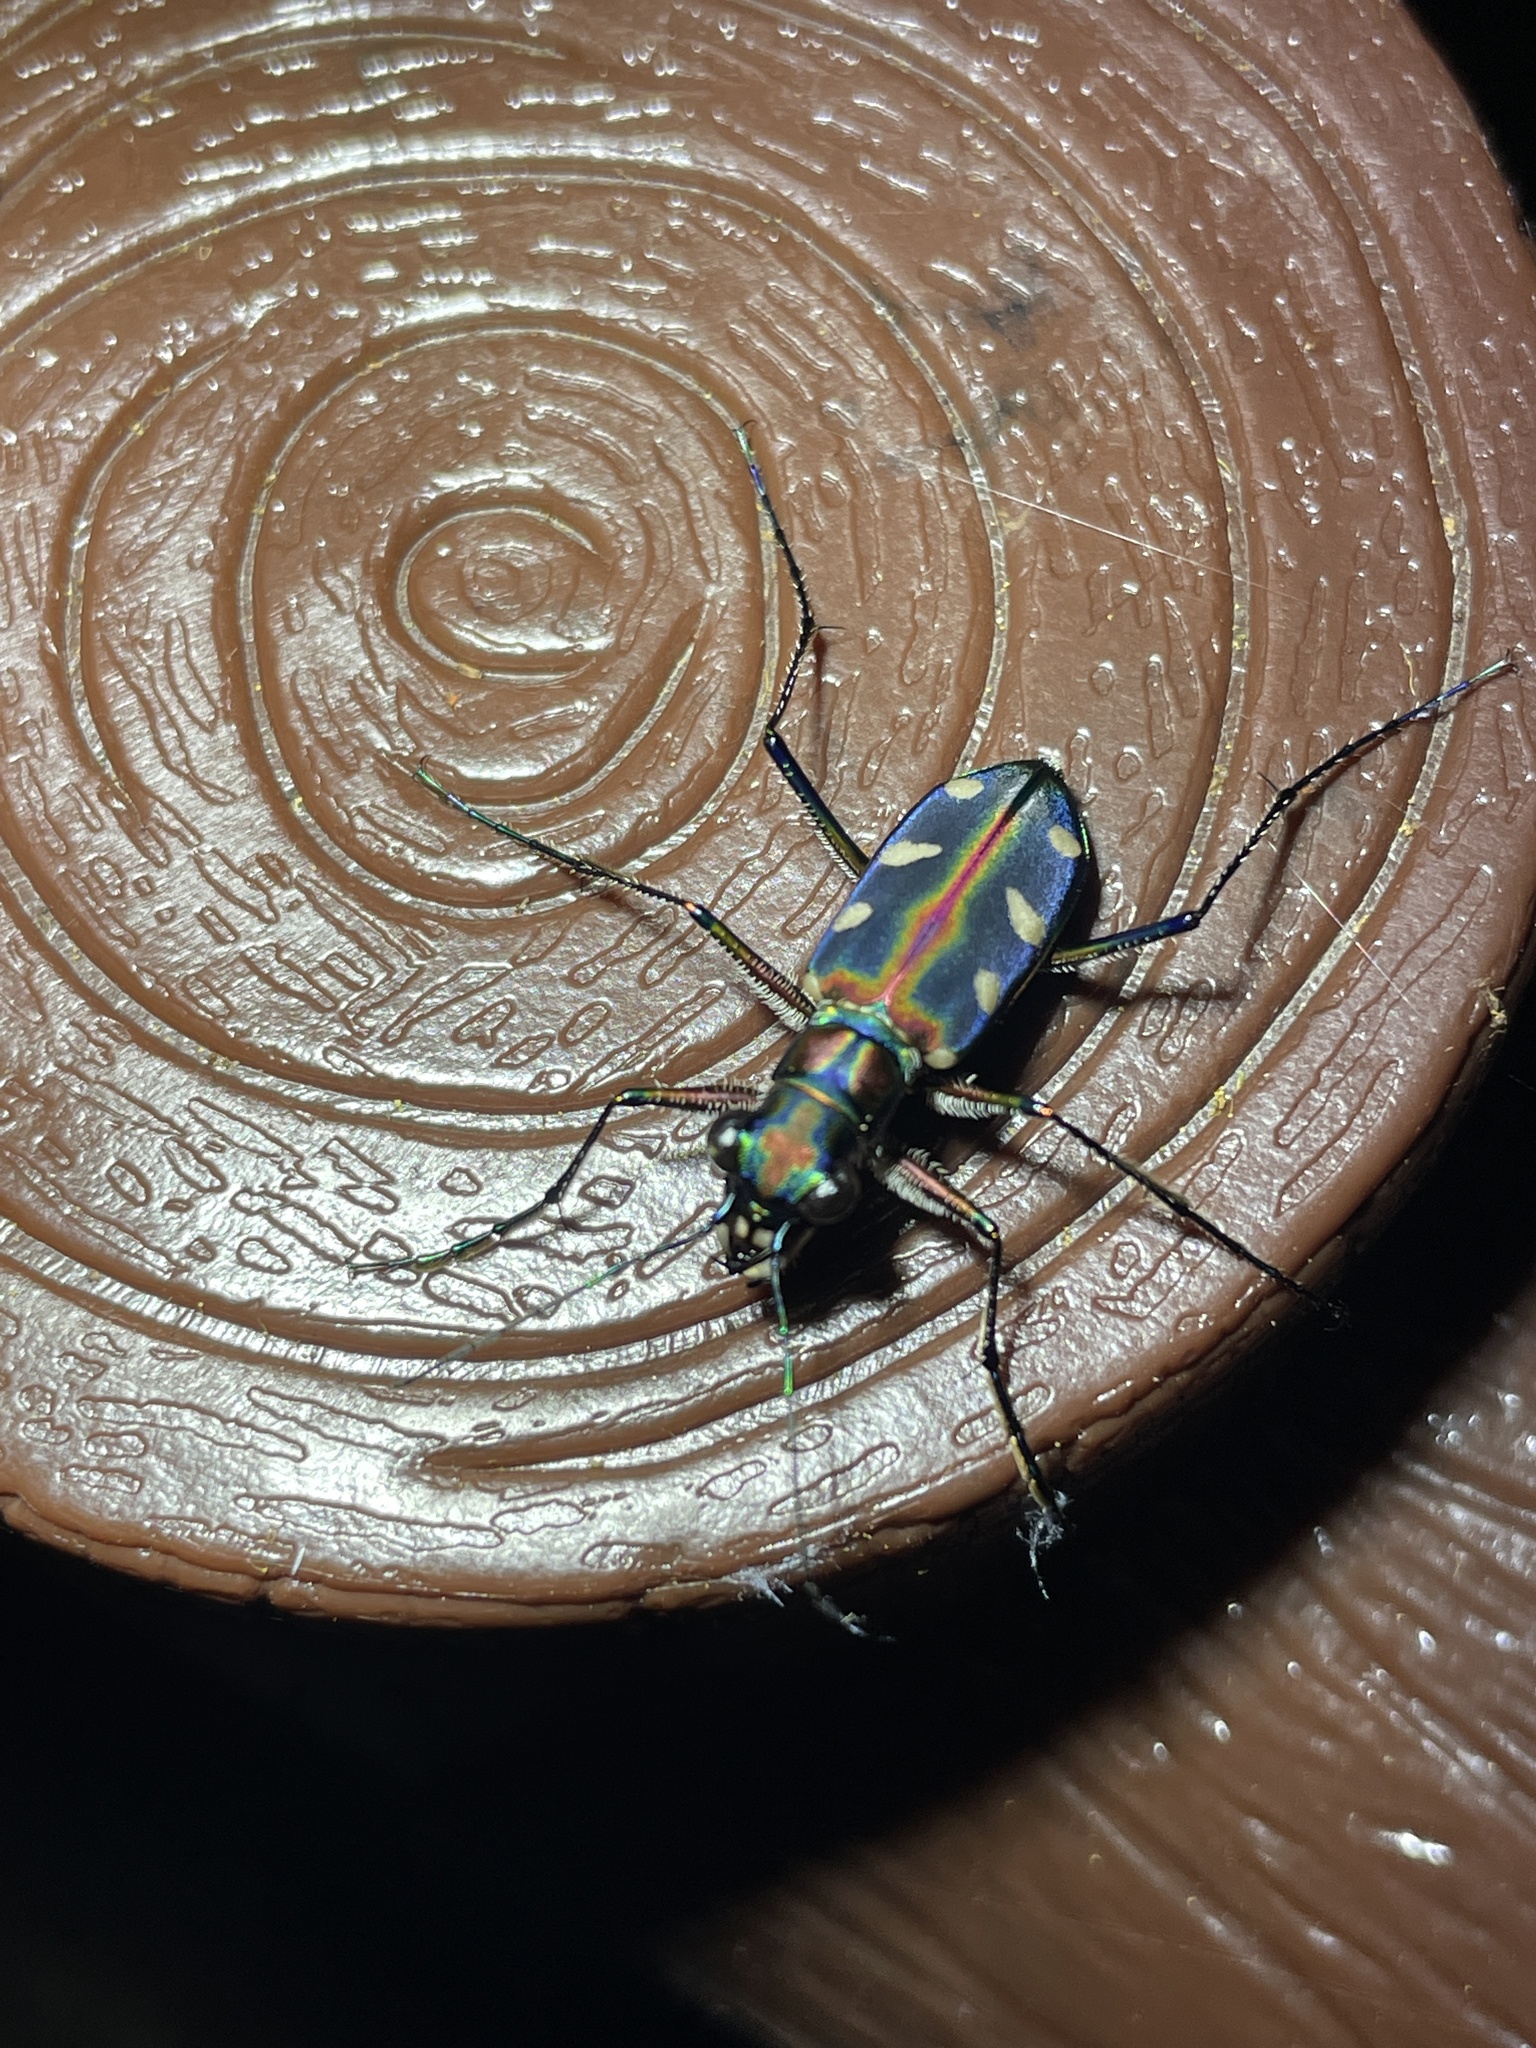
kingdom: Animalia
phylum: Arthropoda
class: Insecta
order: Coleoptera
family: Carabidae
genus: Cicindela
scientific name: Cicindela juxtata
